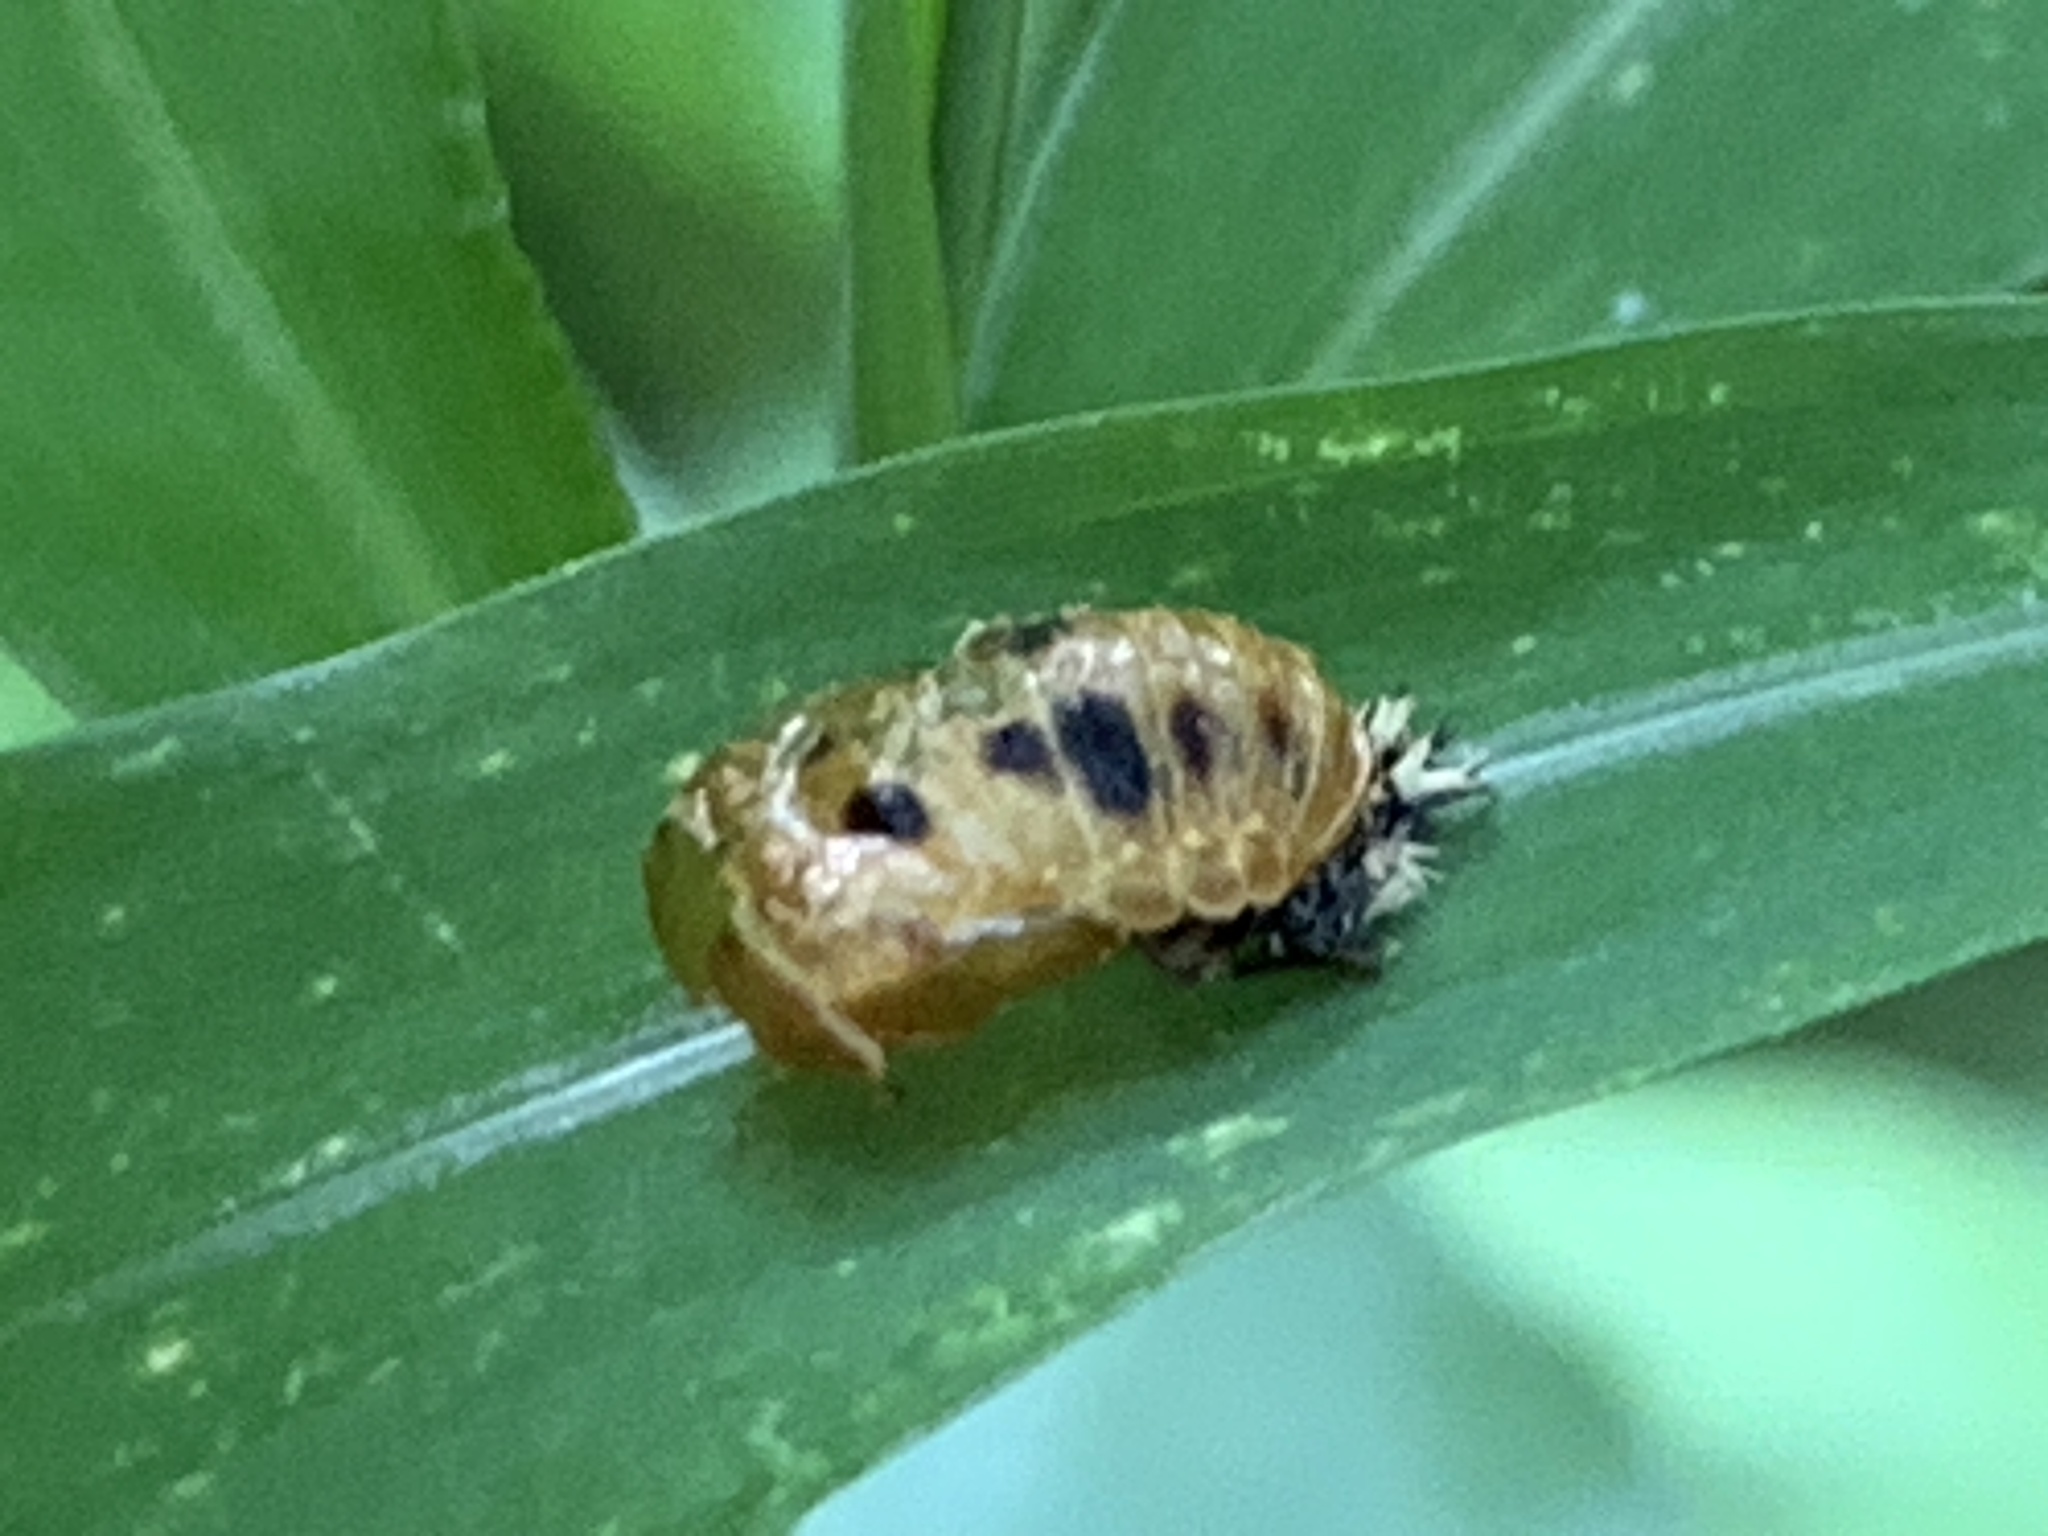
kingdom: Animalia
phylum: Arthropoda
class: Insecta
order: Coleoptera
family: Coccinellidae
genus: Harmonia
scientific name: Harmonia axyridis
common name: Harlequin ladybird
